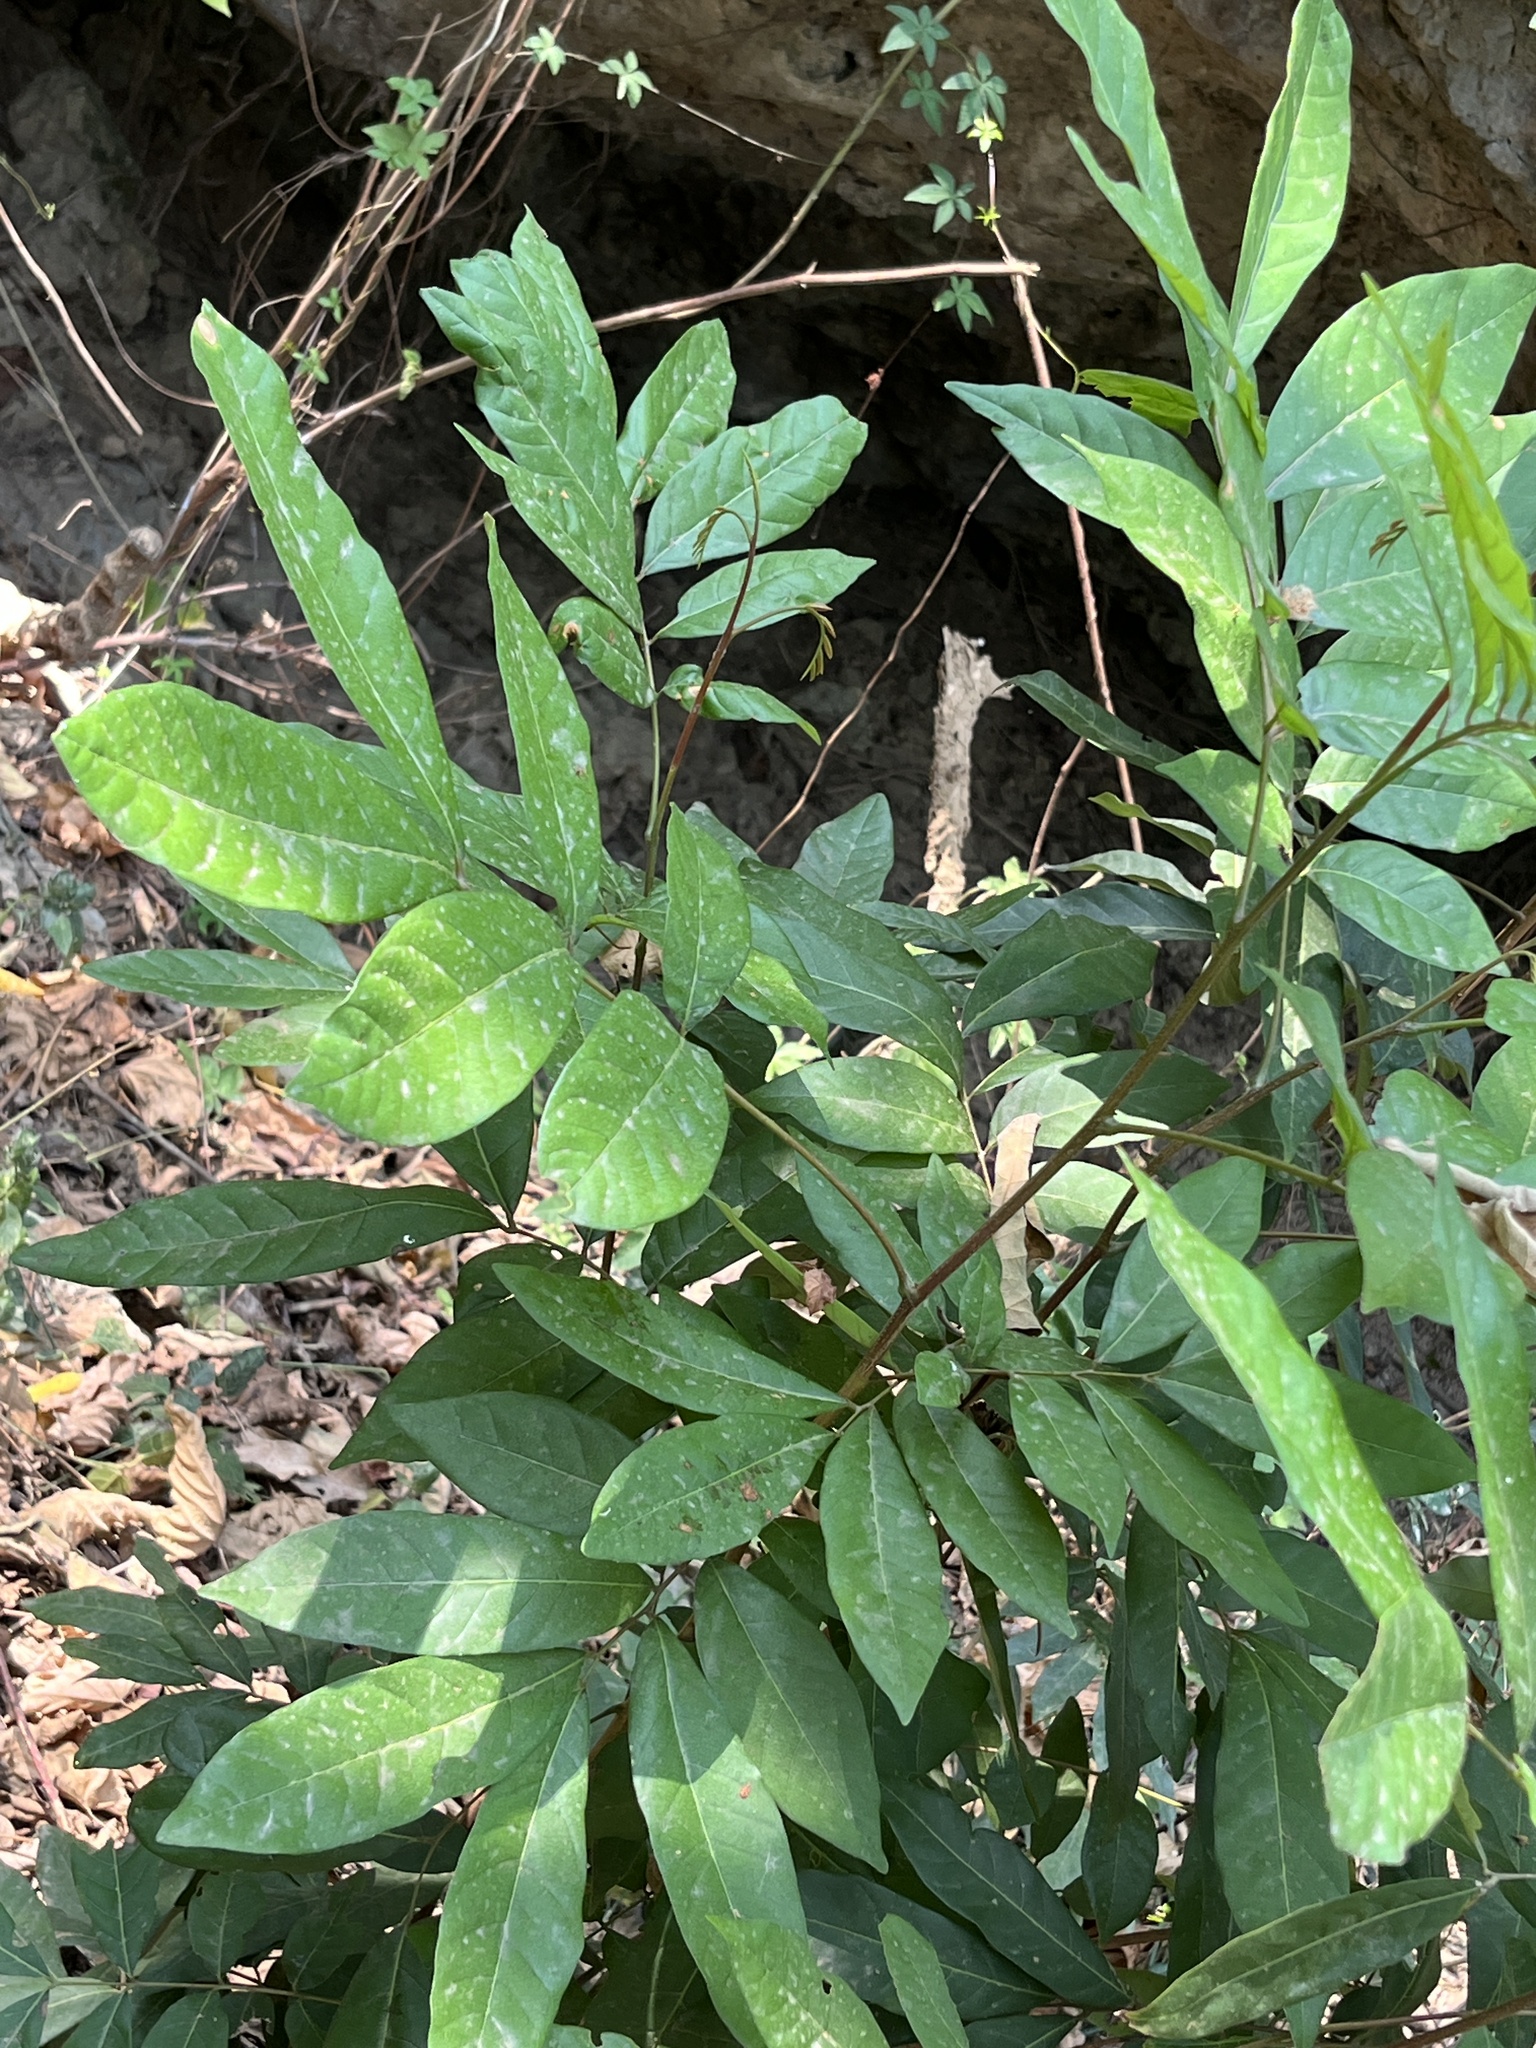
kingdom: Plantae
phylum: Tracheophyta
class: Magnoliopsida
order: Sapindales
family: Sapindaceae
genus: Dimocarpus
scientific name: Dimocarpus longan
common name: Longan
